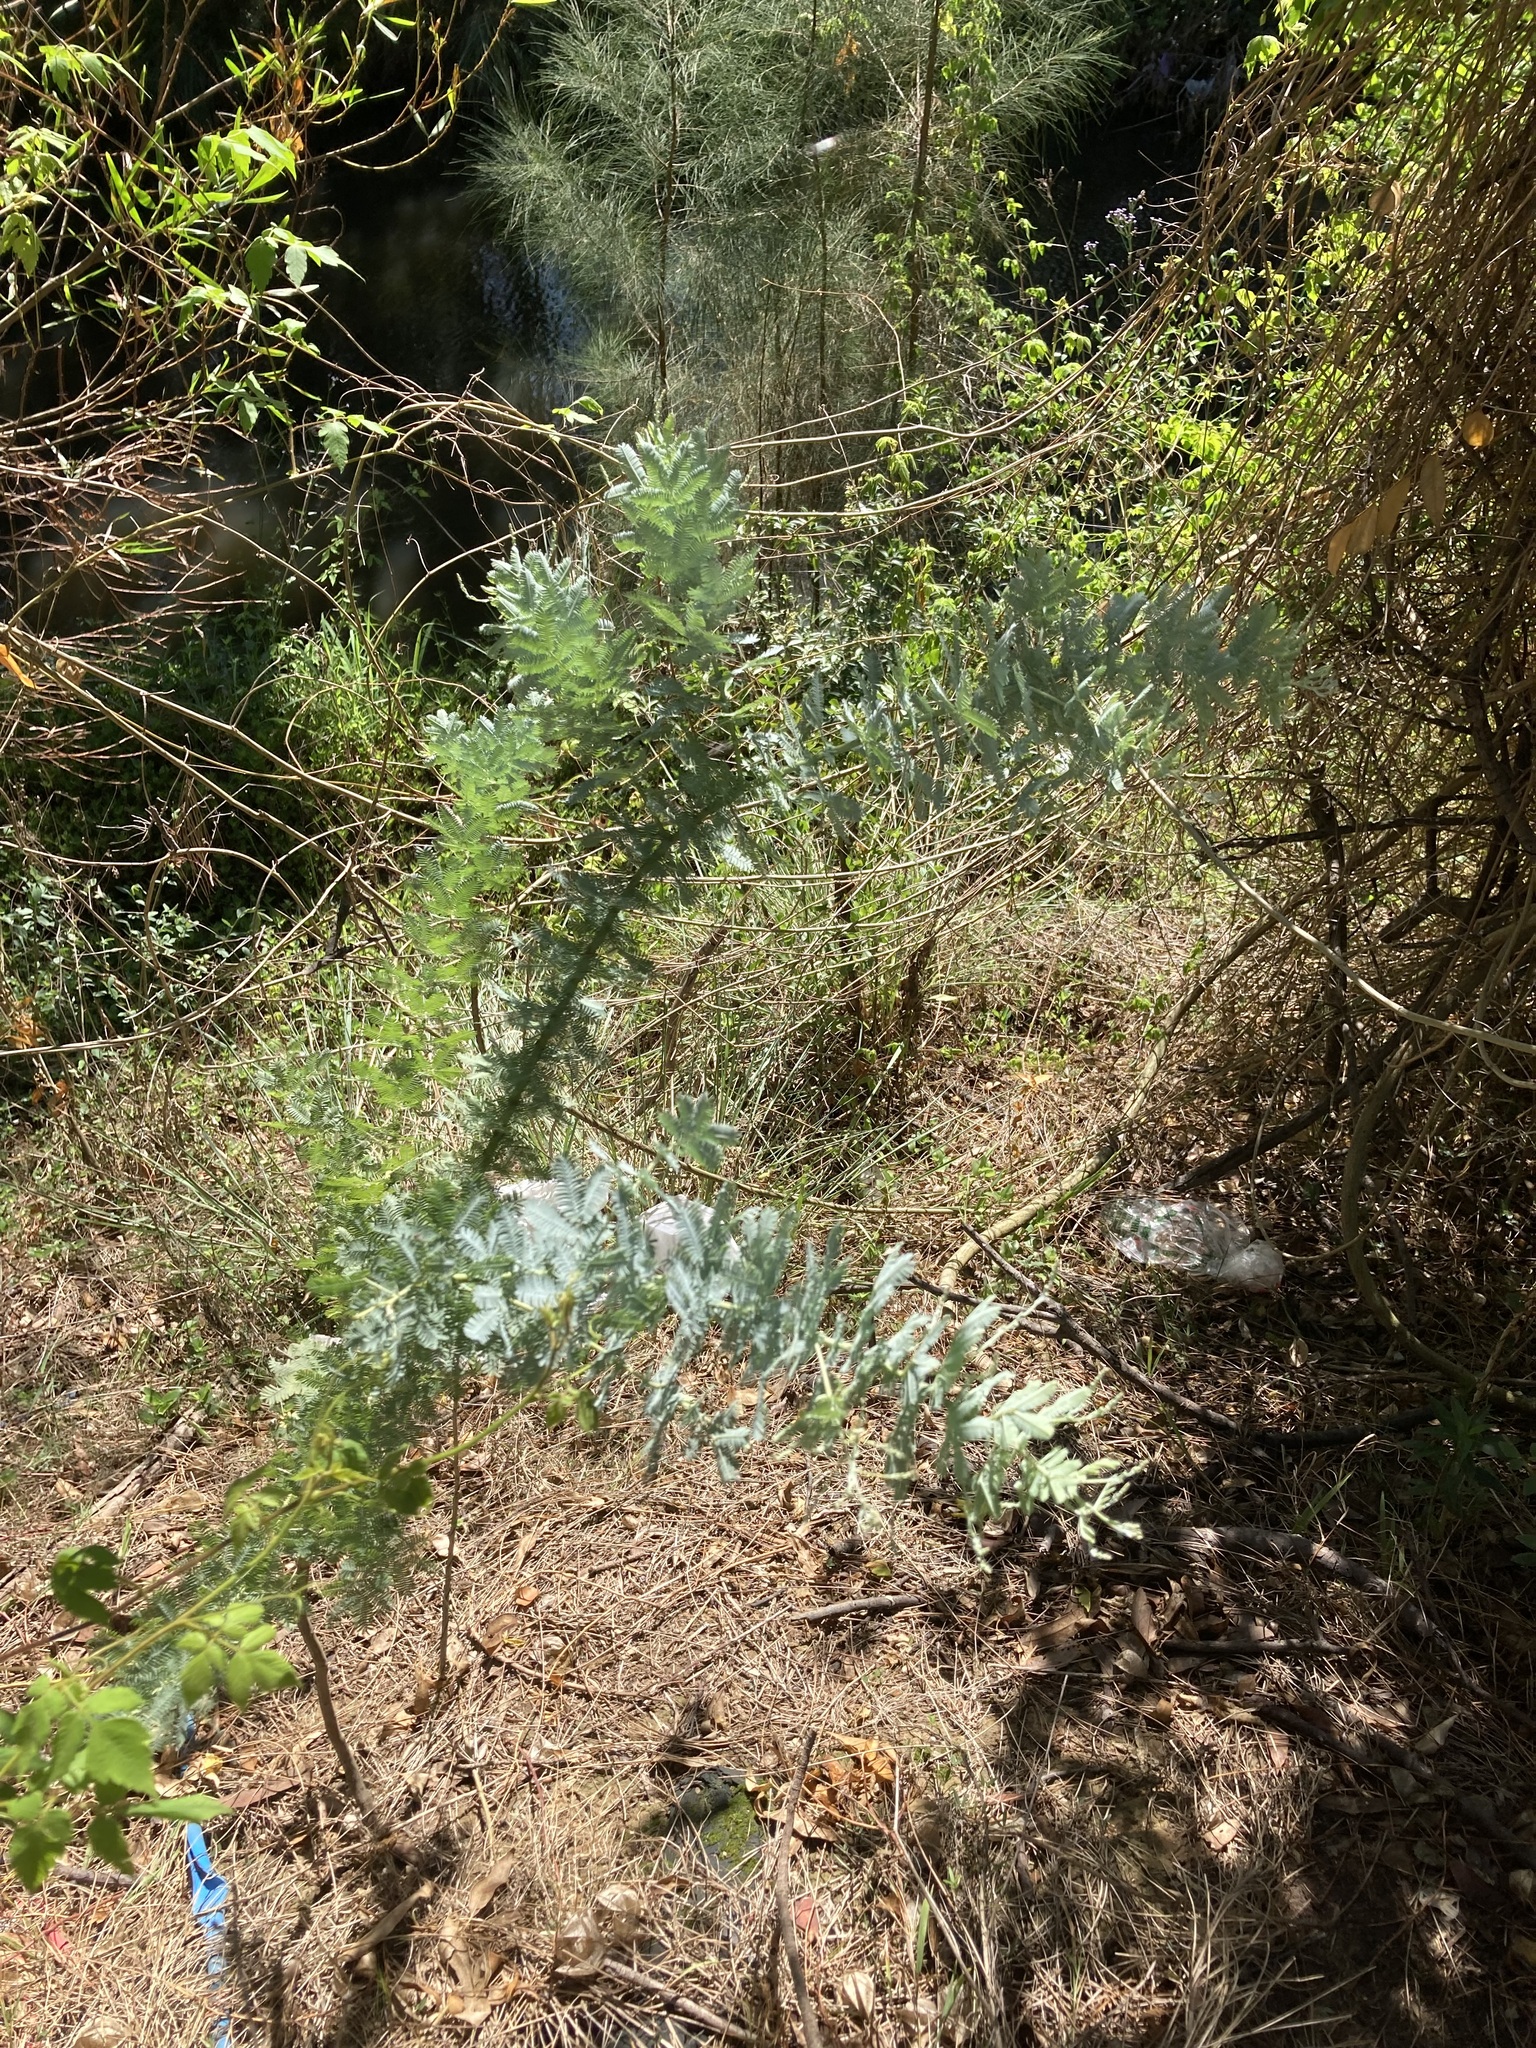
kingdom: Plantae
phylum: Tracheophyta
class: Magnoliopsida
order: Fabales
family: Fabaceae
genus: Acacia
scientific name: Acacia baileyana
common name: Cootamundra wattle
